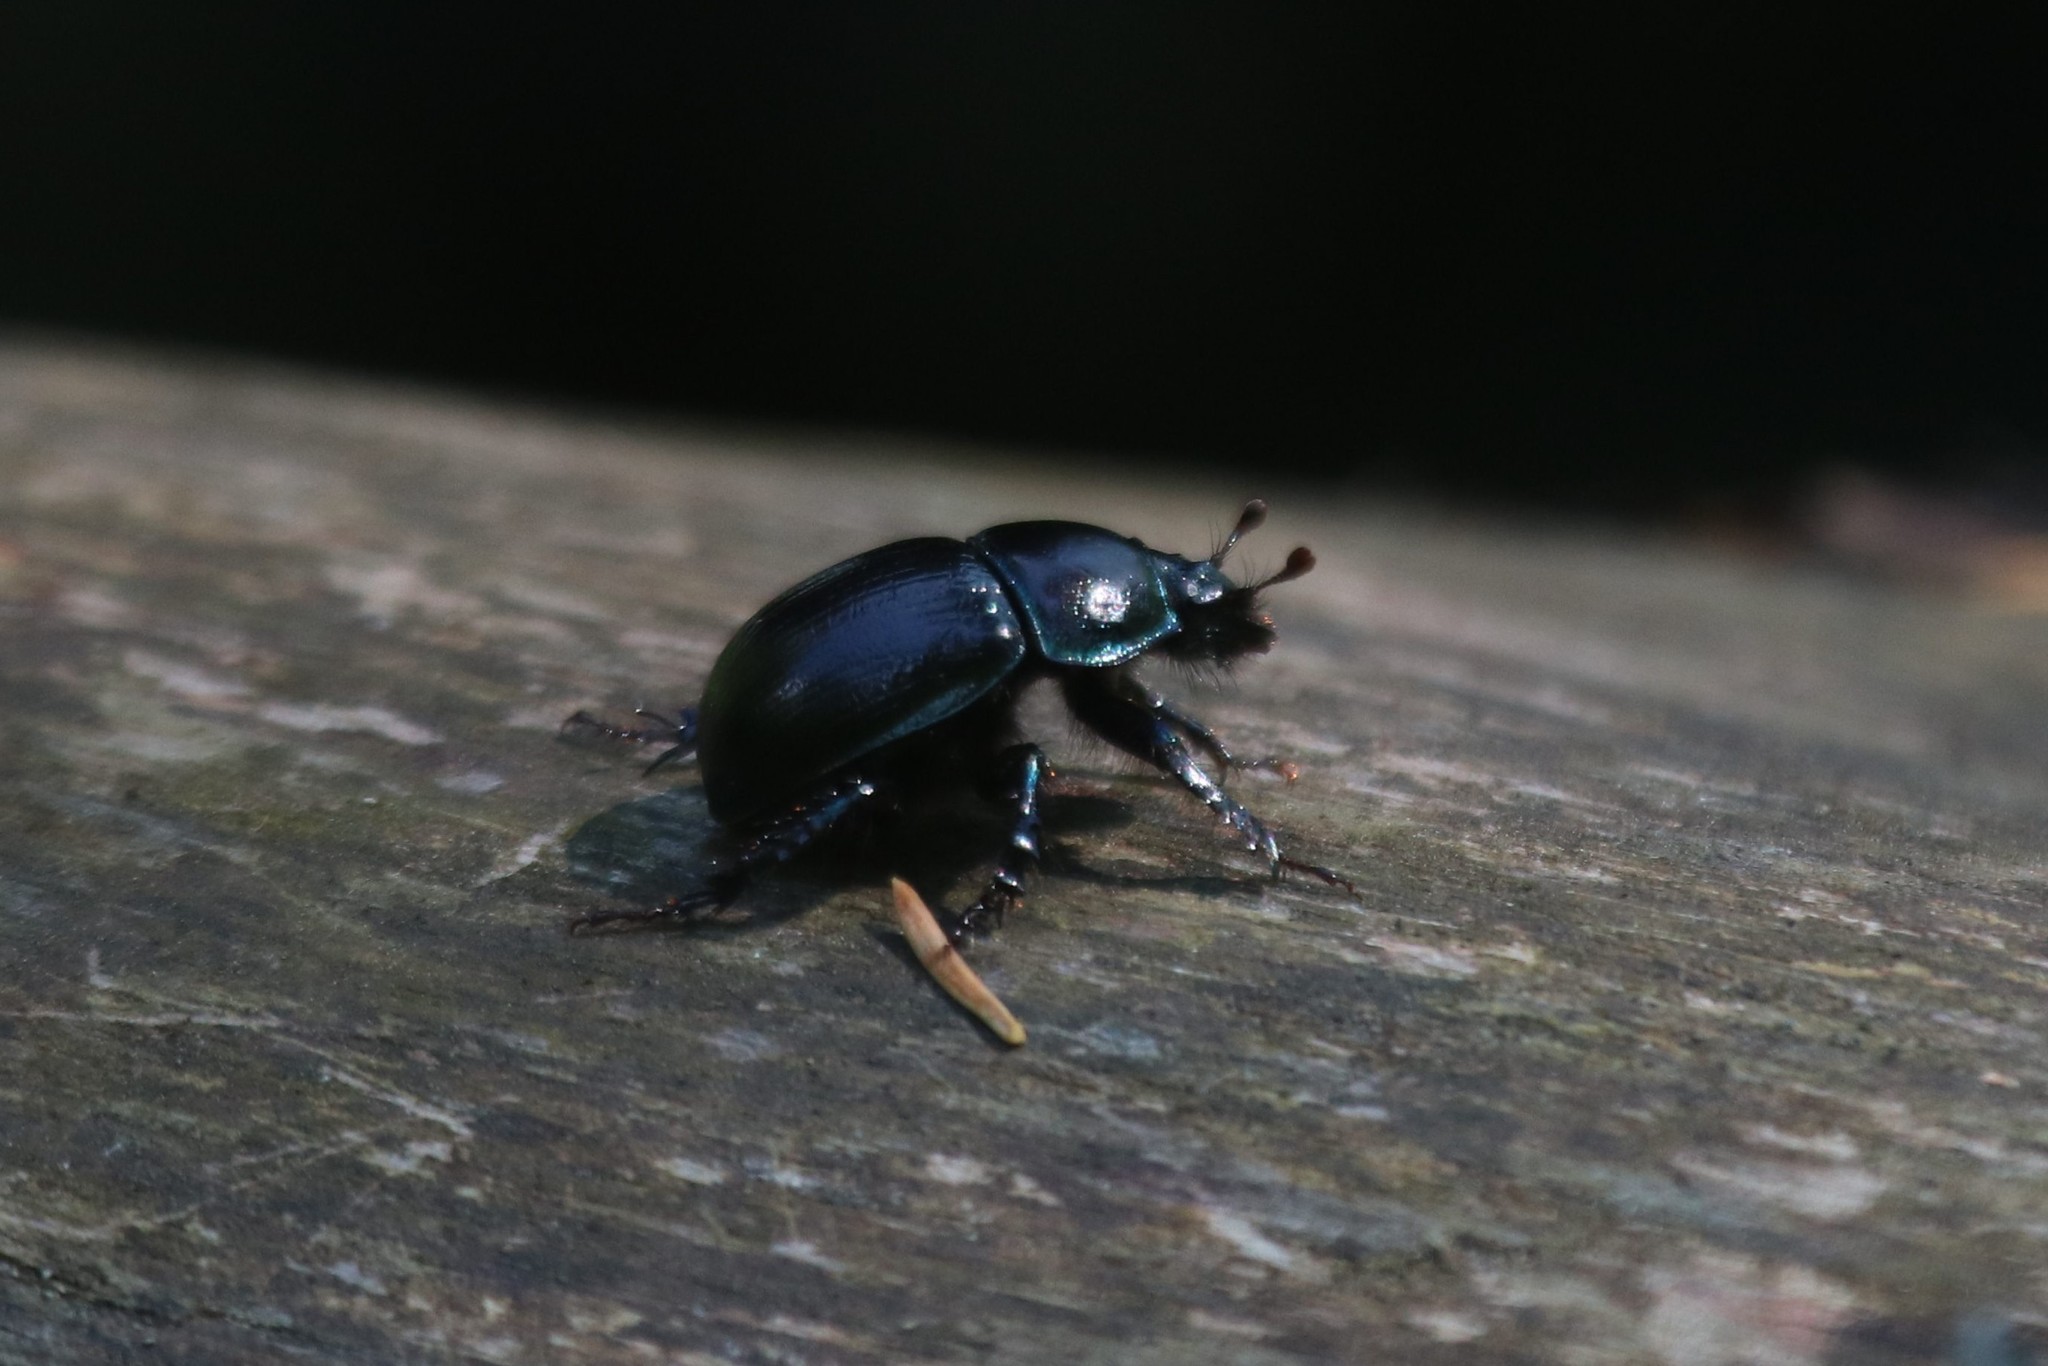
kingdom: Animalia
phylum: Arthropoda
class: Insecta
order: Coleoptera
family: Geotrupidae
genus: Anoplotrupes
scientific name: Anoplotrupes stercorosus
